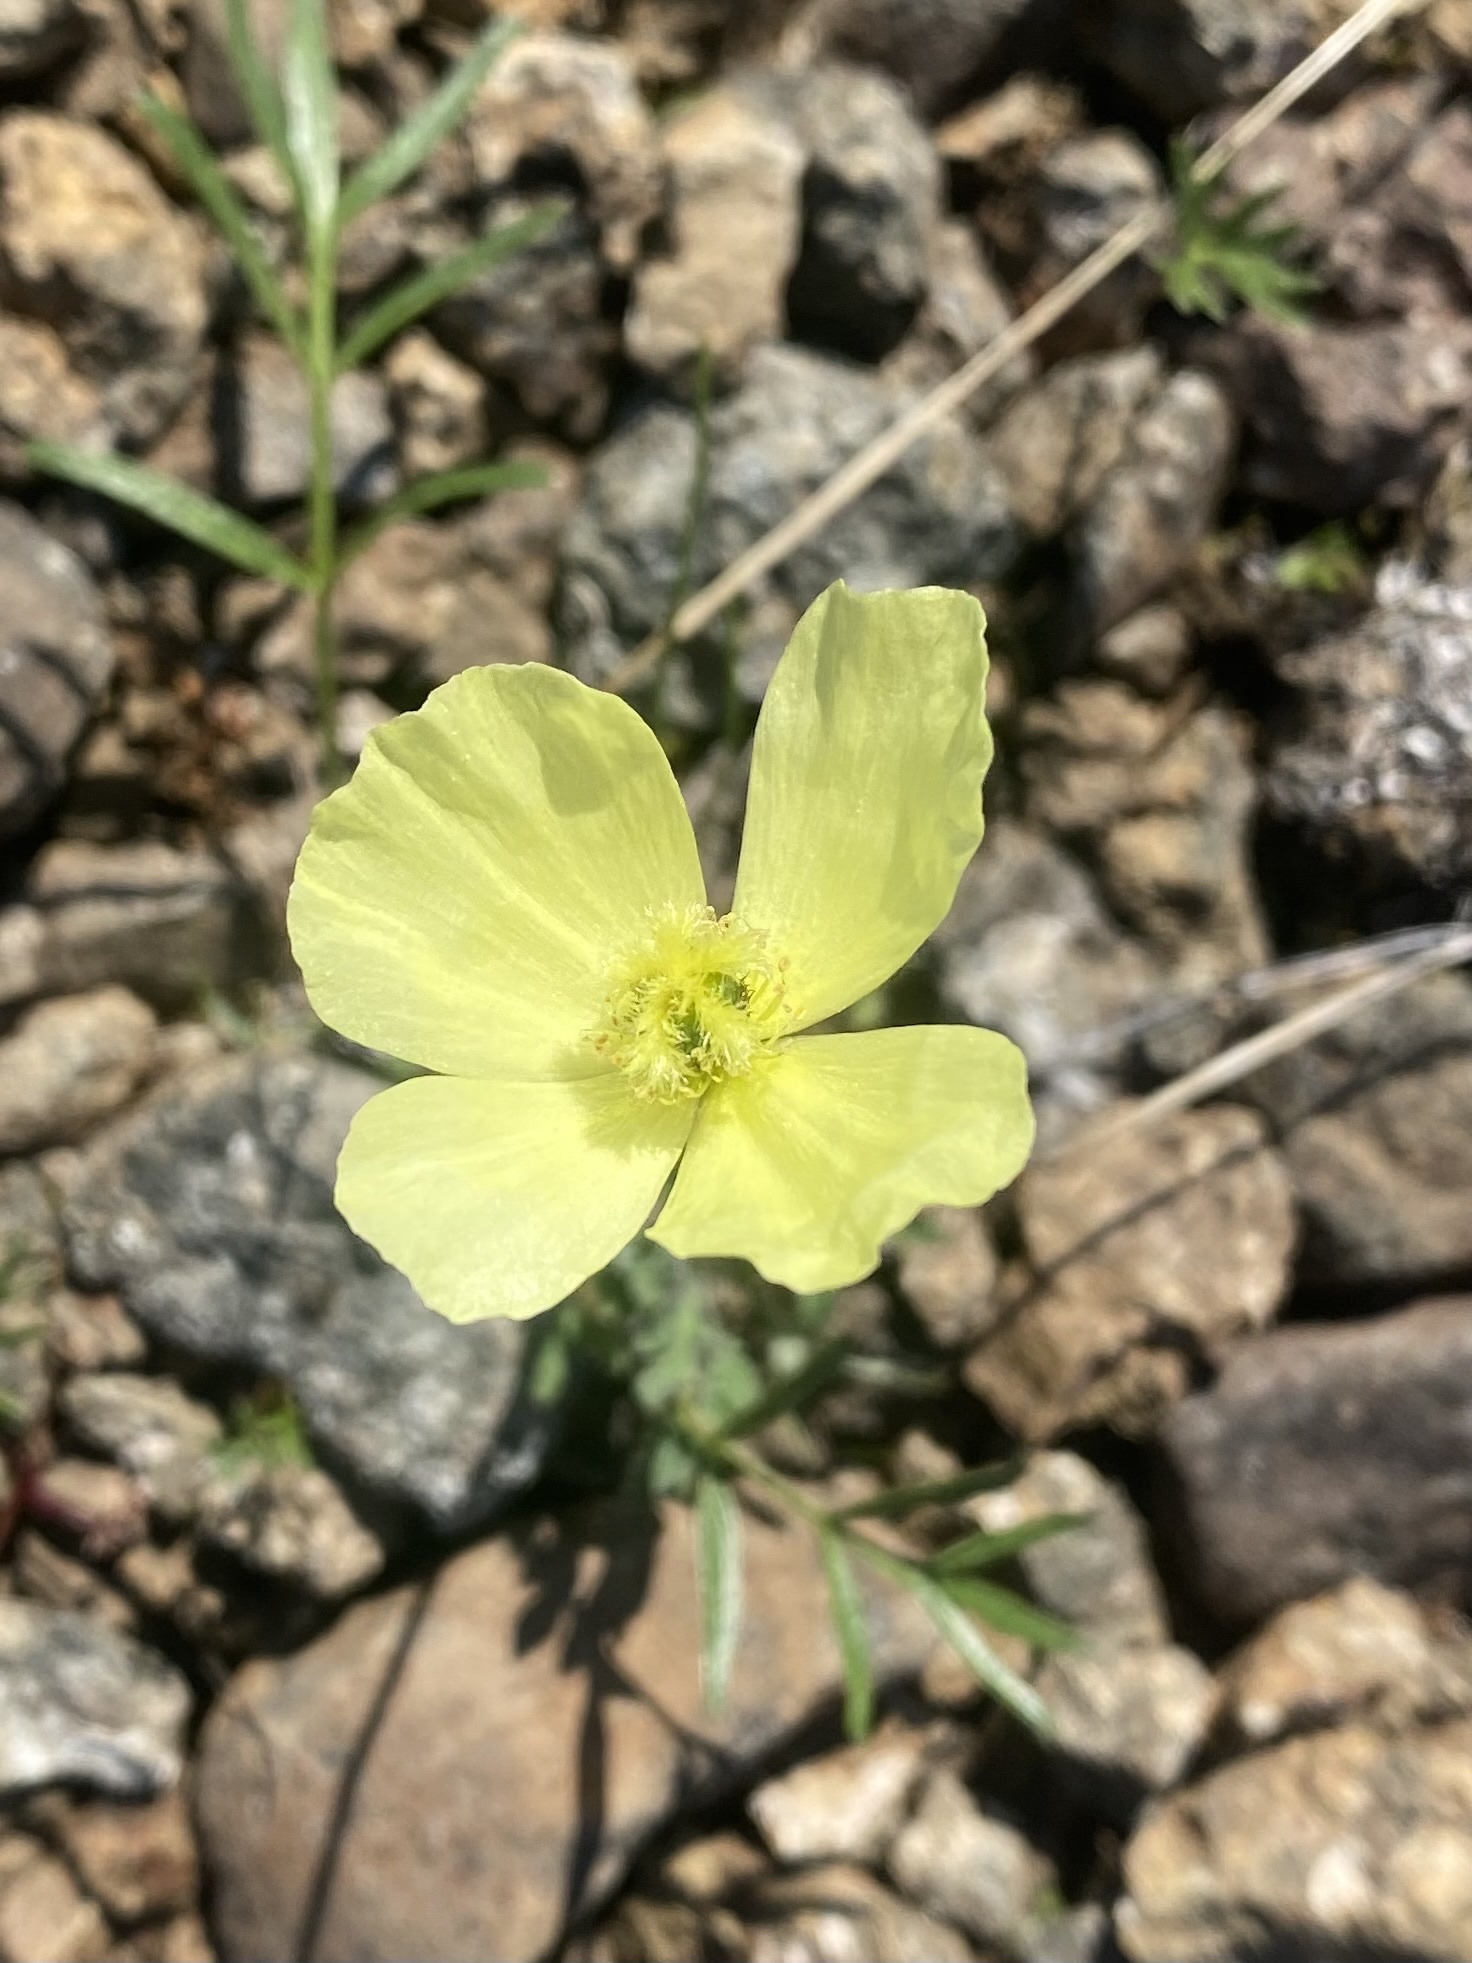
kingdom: Plantae
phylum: Tracheophyta
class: Magnoliopsida
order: Ranunculales
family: Papaveraceae
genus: Papaver
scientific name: Papaver lapponicum
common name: Lapland poppy
